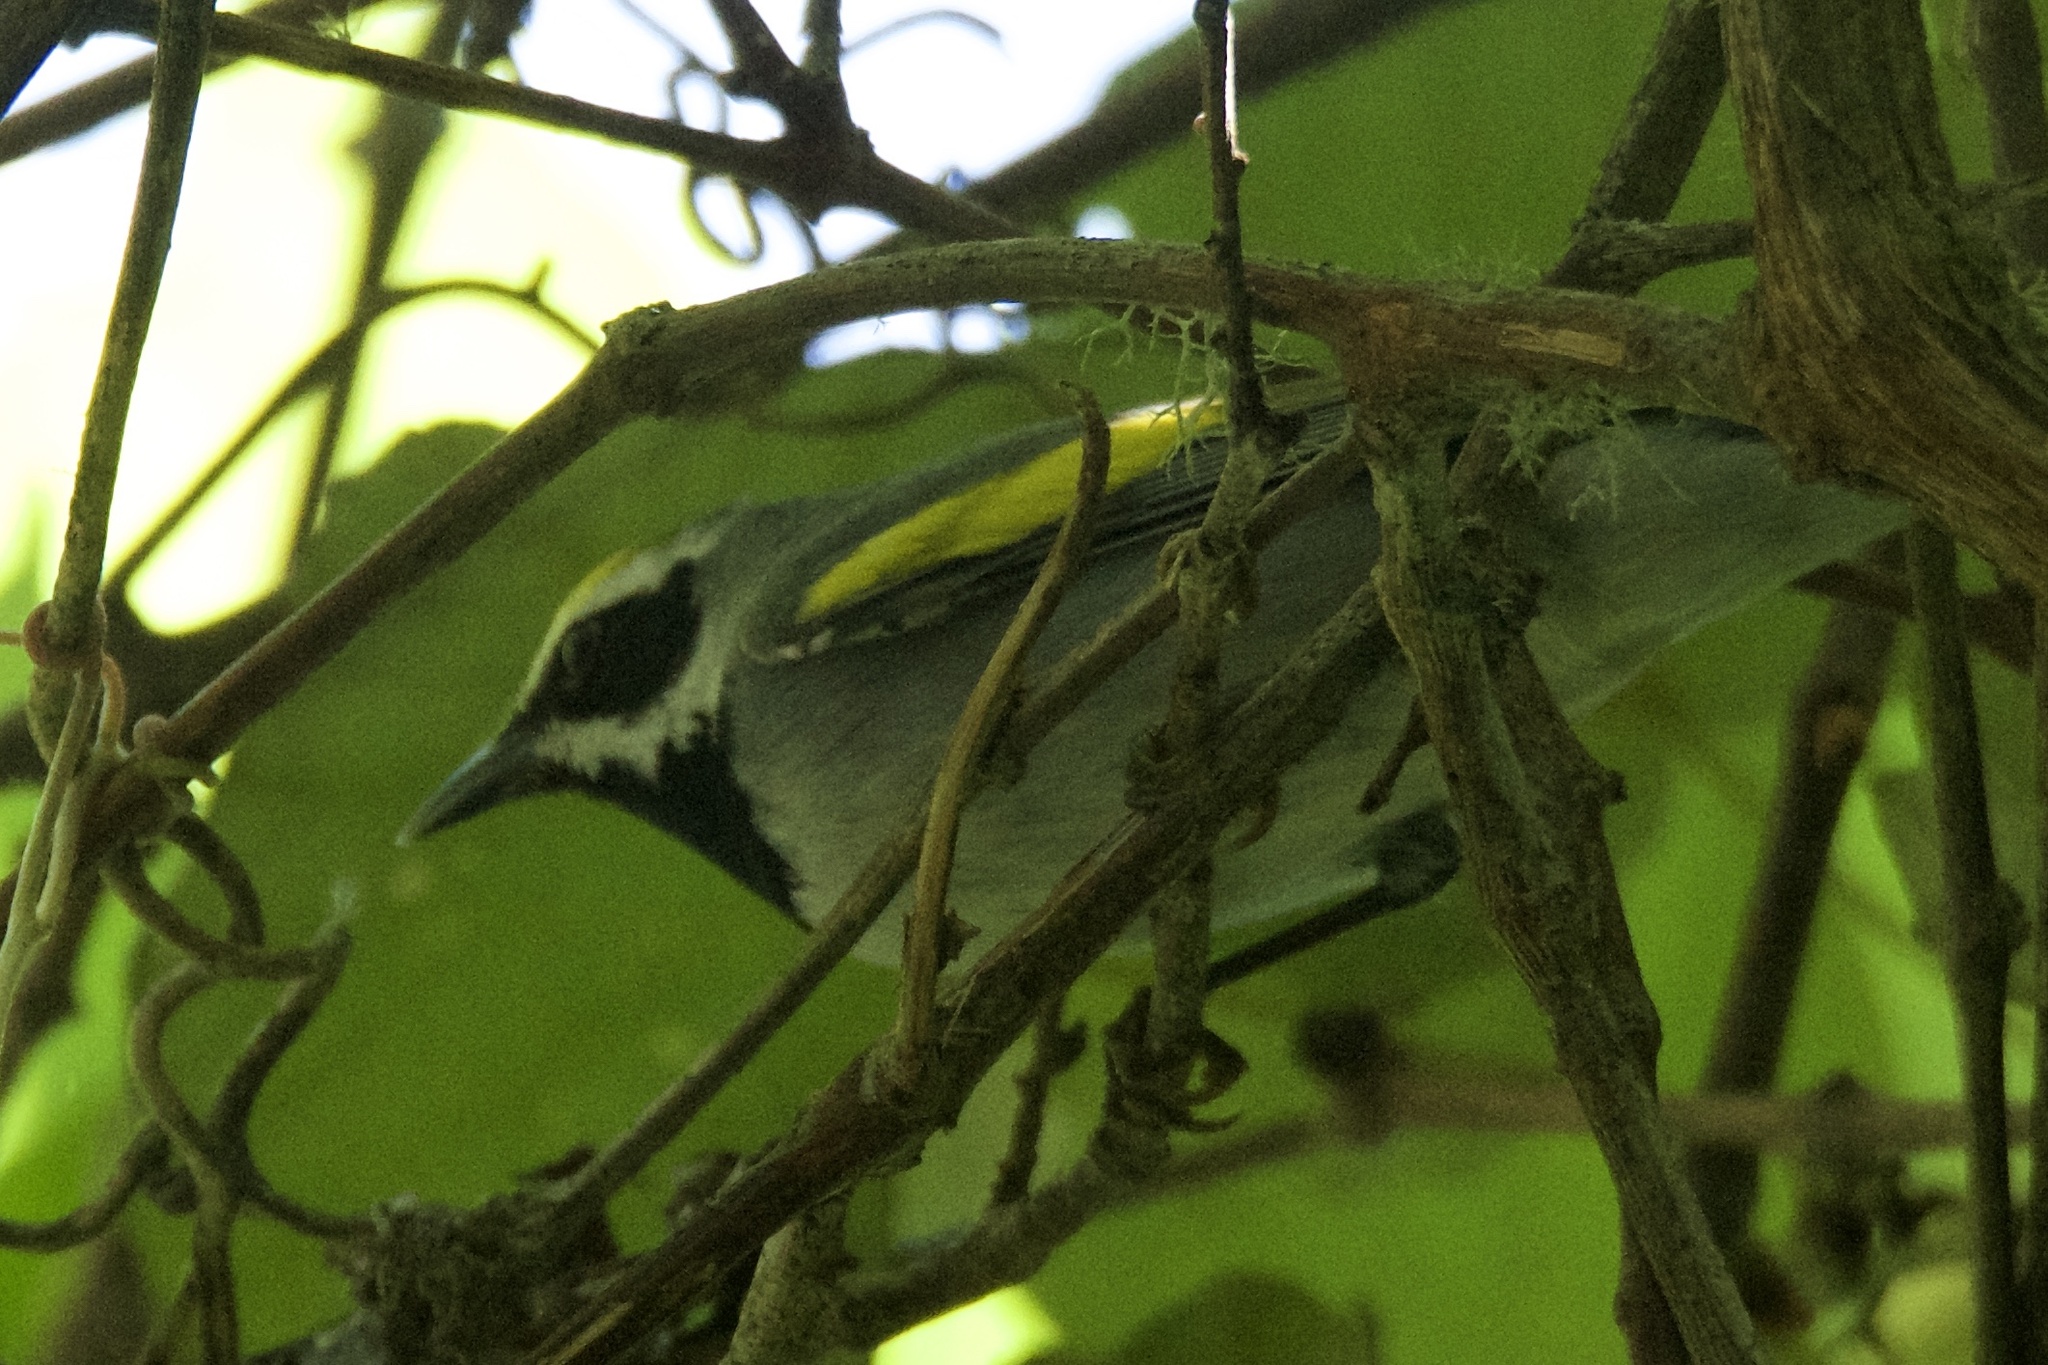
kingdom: Animalia
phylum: Chordata
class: Aves
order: Passeriformes
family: Parulidae
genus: Vermivora
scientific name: Vermivora chrysoptera
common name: Golden-winged warbler
